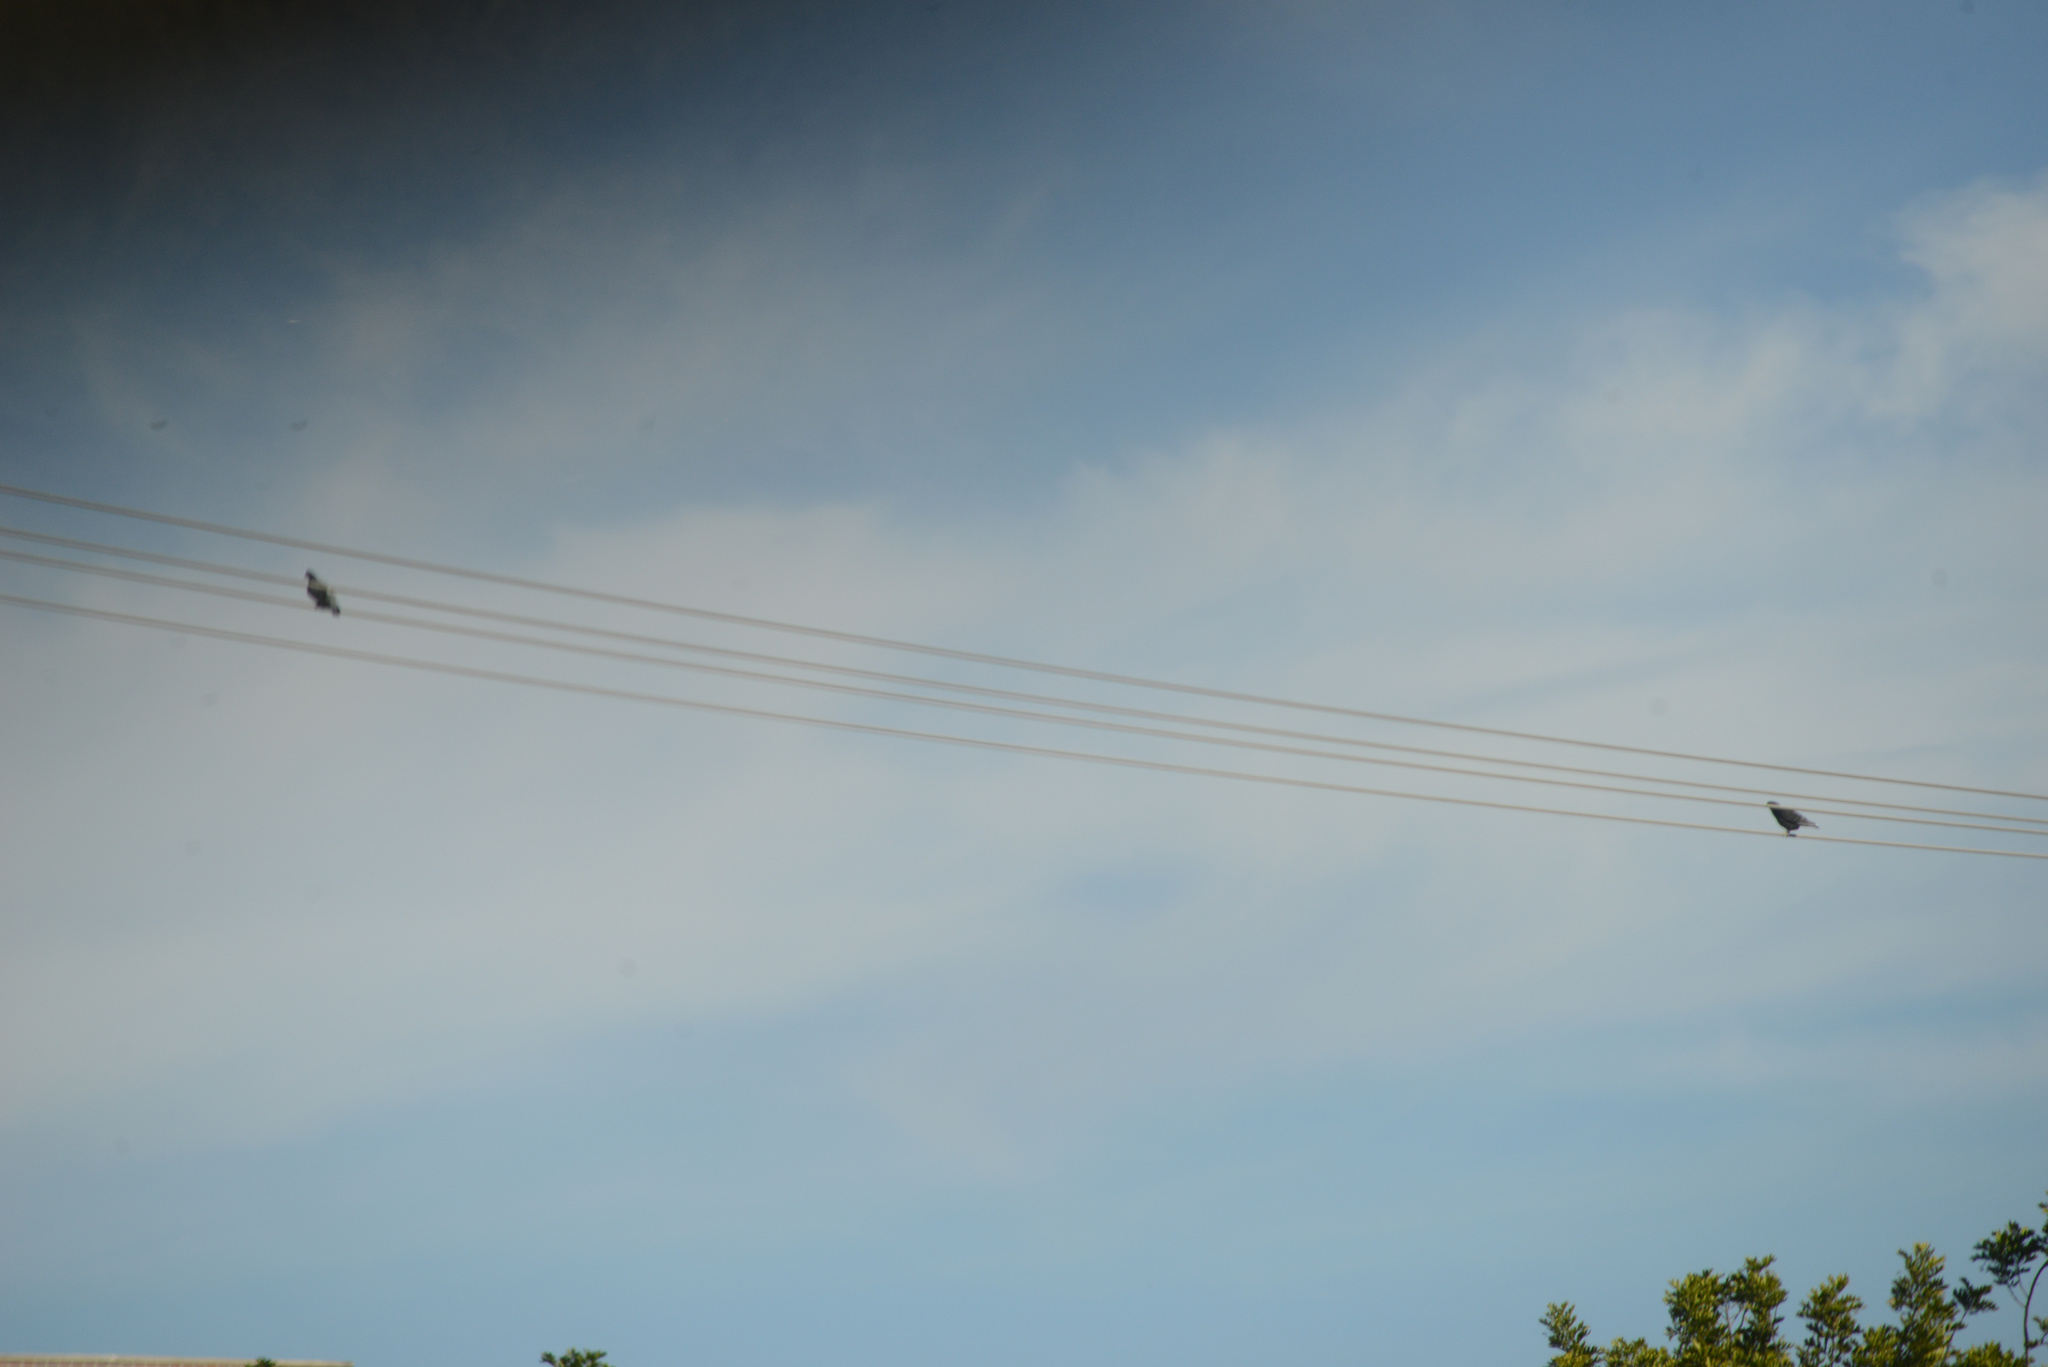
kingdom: Animalia
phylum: Chordata
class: Aves
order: Columbiformes
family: Columbidae
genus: Columba
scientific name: Columba livia
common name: Rock pigeon
